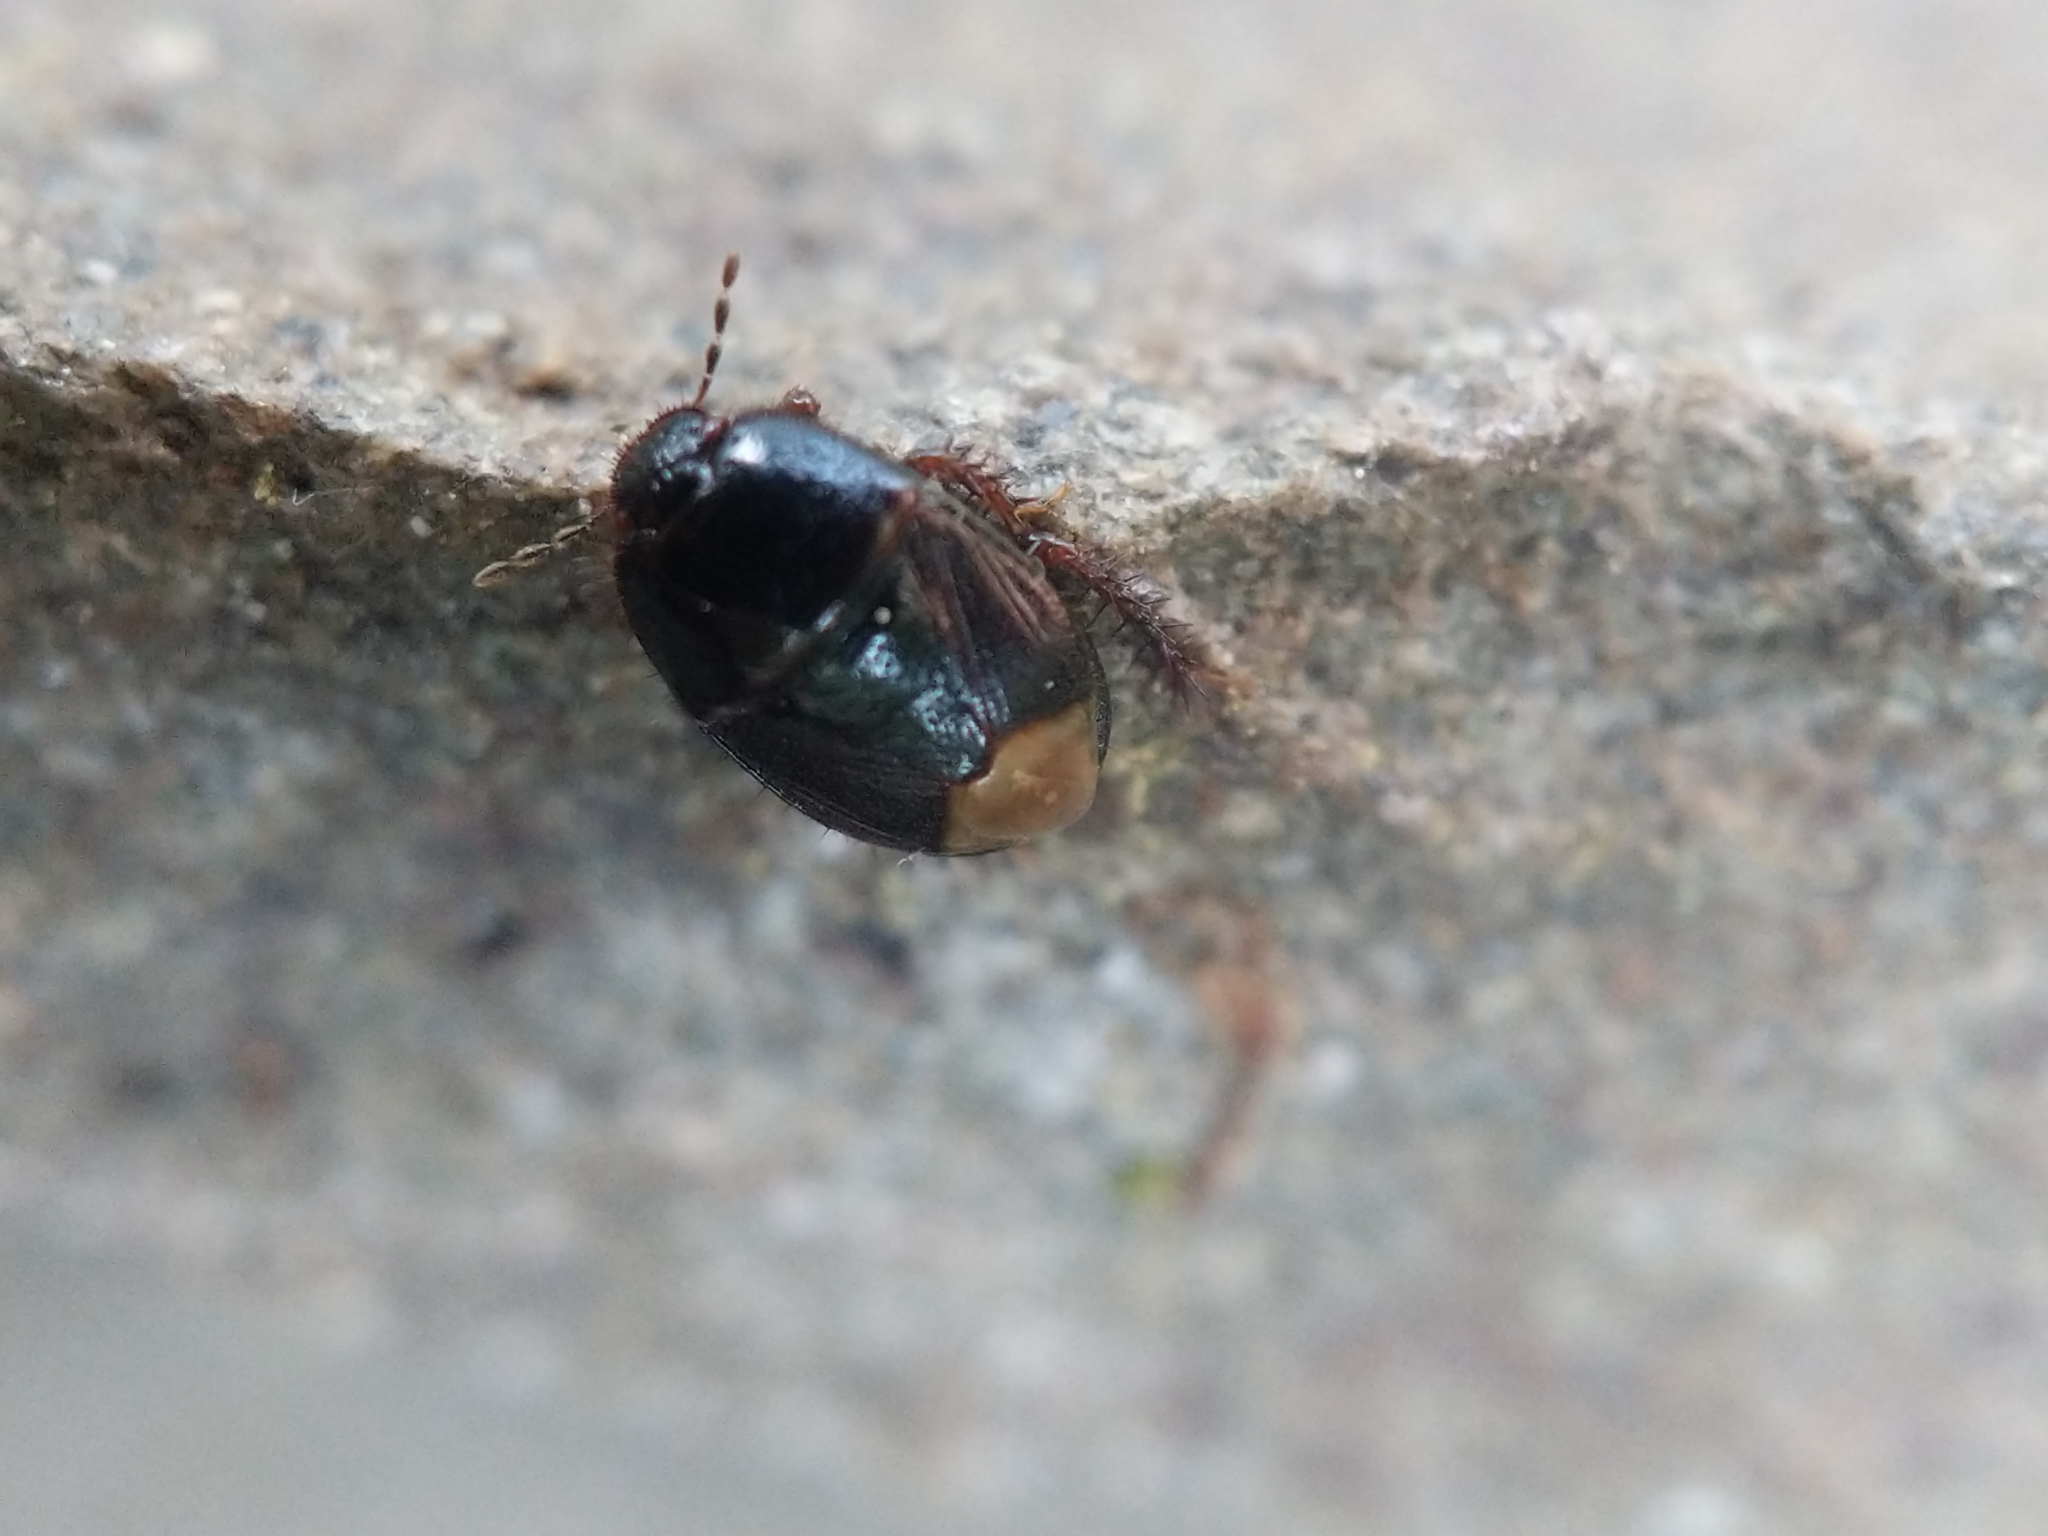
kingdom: Animalia
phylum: Arthropoda
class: Insecta
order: Hemiptera
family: Cydnidae
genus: Pangaeus
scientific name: Pangaeus bilineatus
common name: Burrower bug
